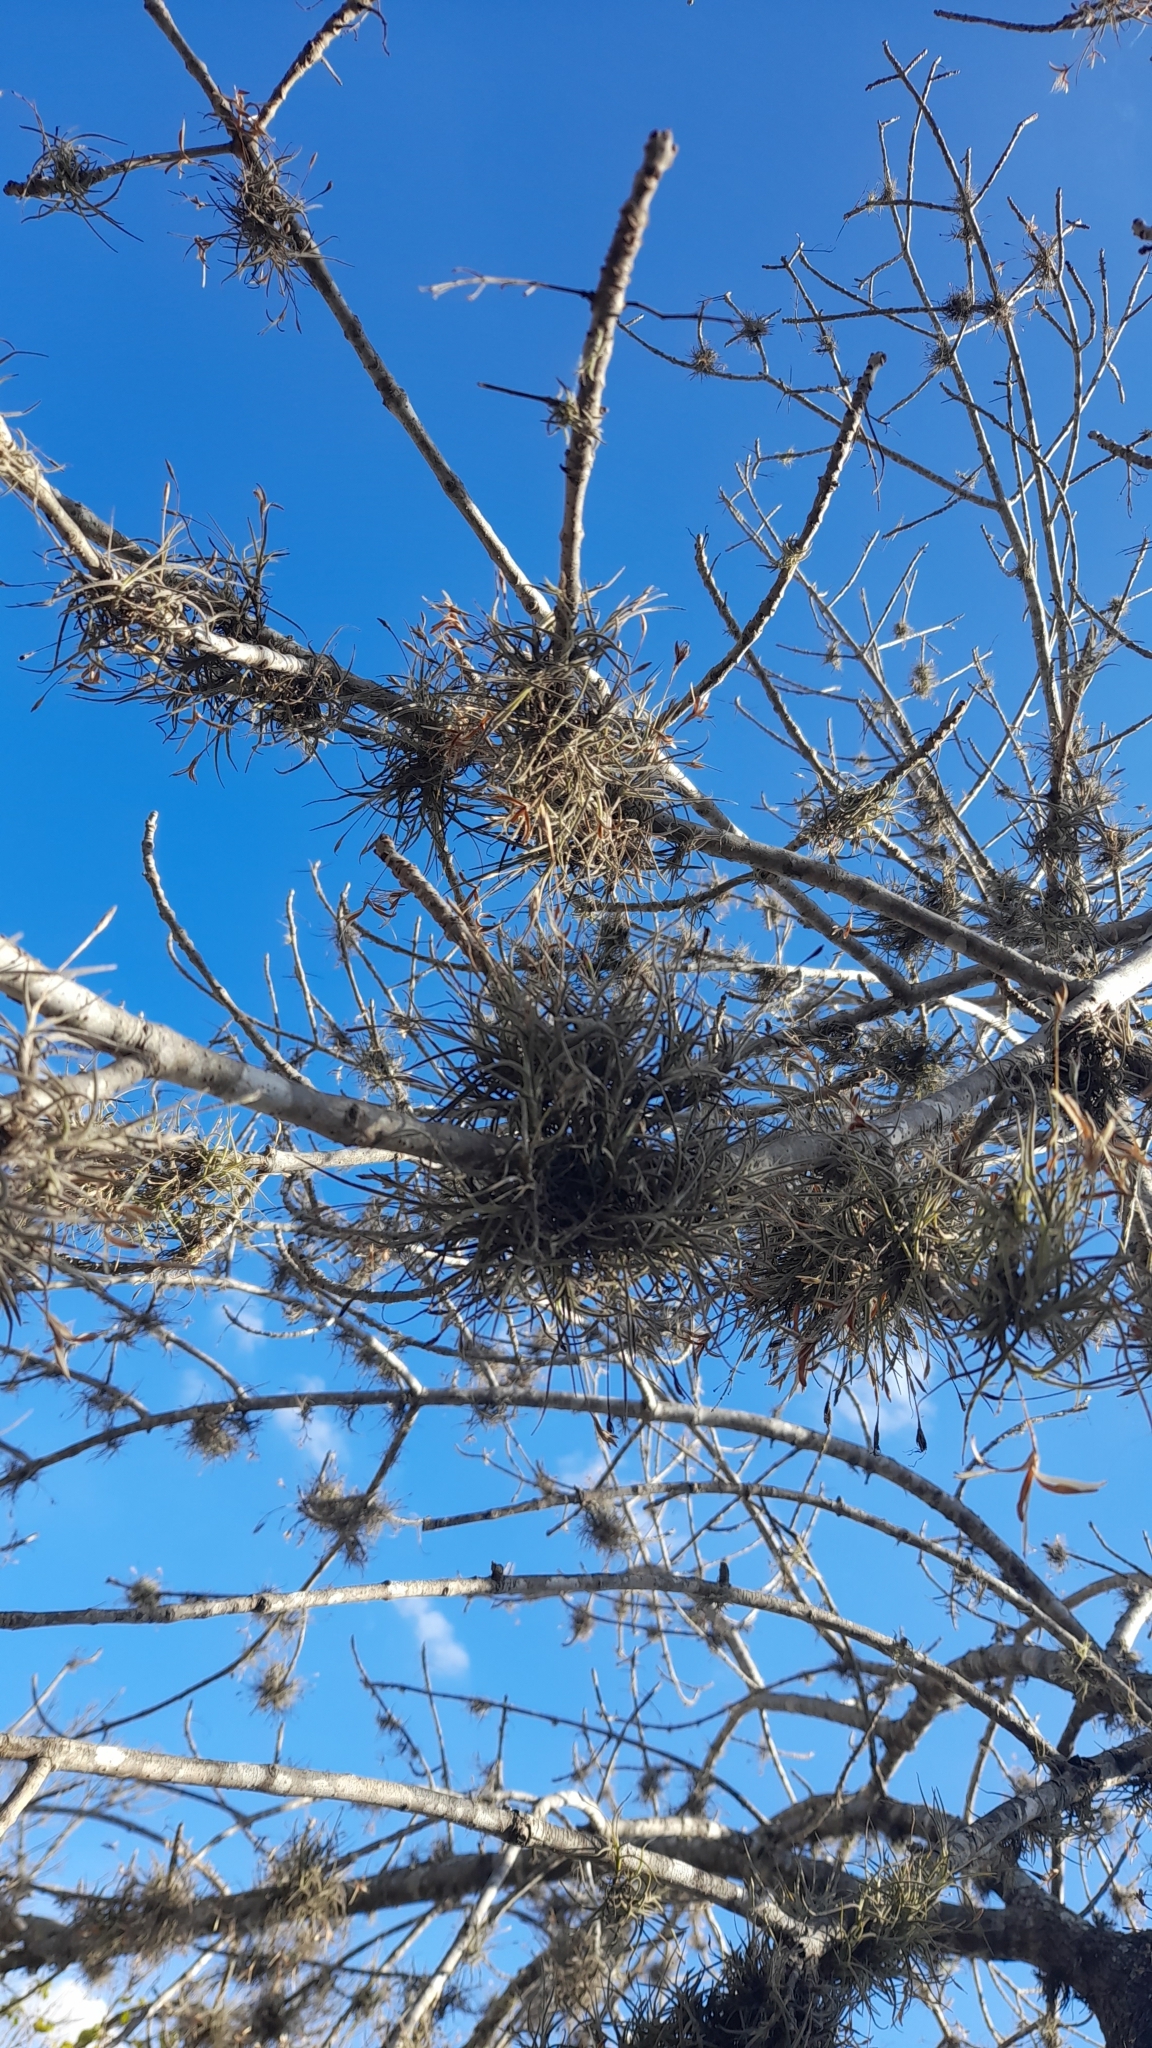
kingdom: Plantae
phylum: Tracheophyta
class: Liliopsida
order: Poales
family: Bromeliaceae
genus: Tillandsia
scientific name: Tillandsia recurvata
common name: Small ballmoss
